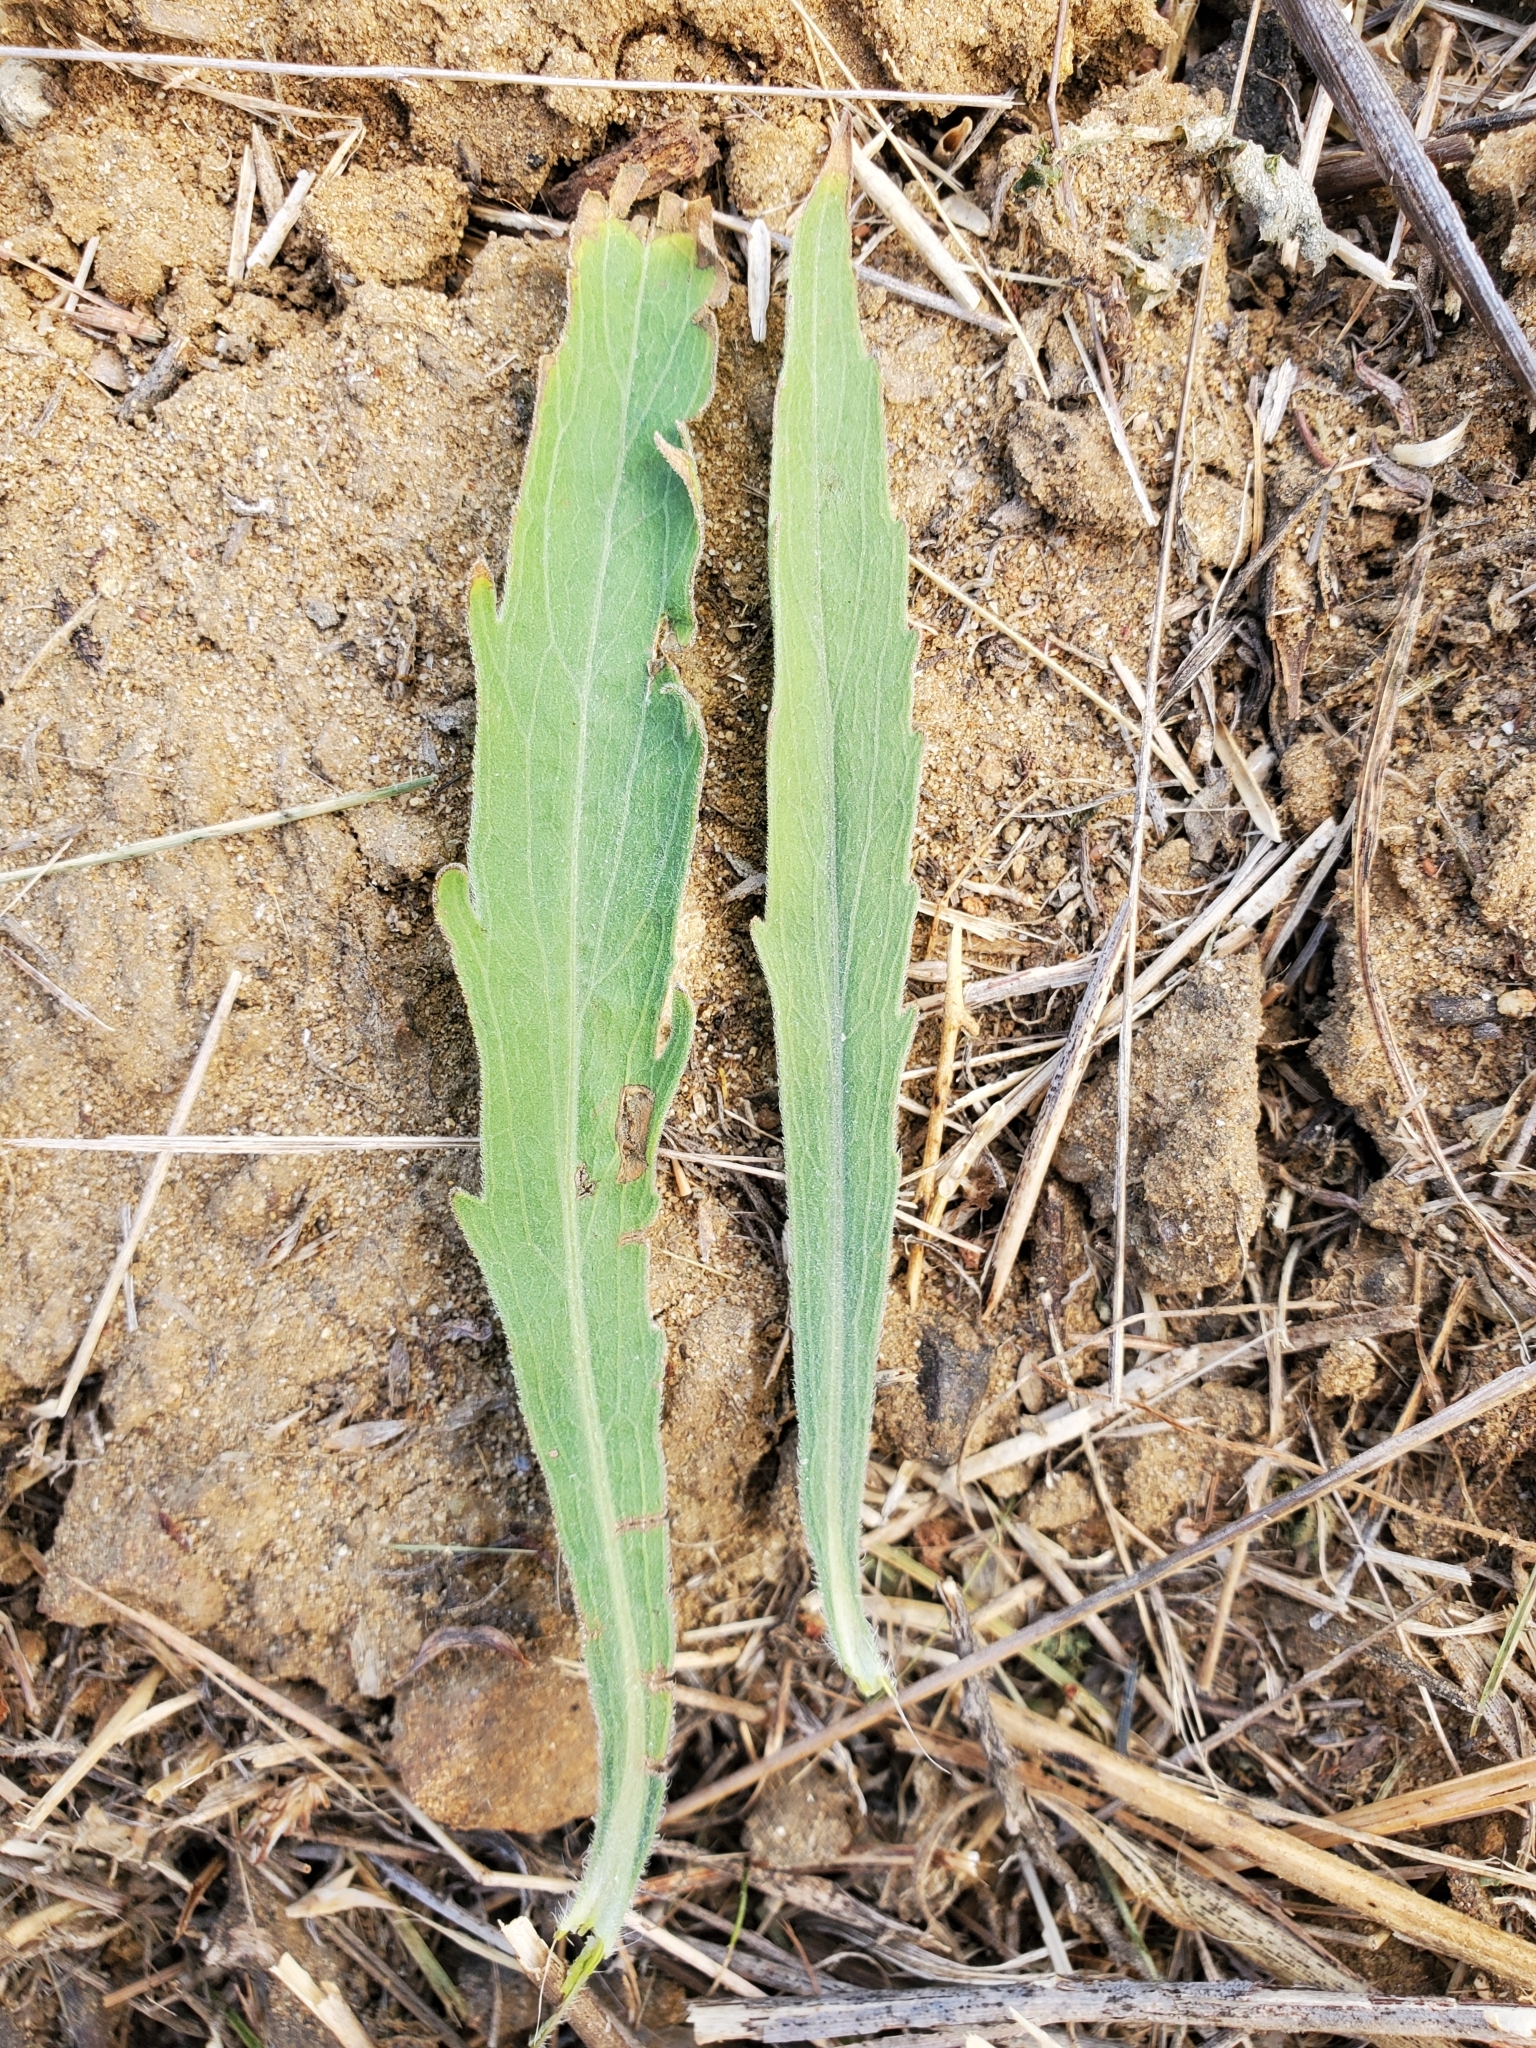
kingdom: Plantae
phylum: Tracheophyta
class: Magnoliopsida
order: Asterales
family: Asteraceae
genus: Erigeron
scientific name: Erigeron sumatrensis
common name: Daisy
